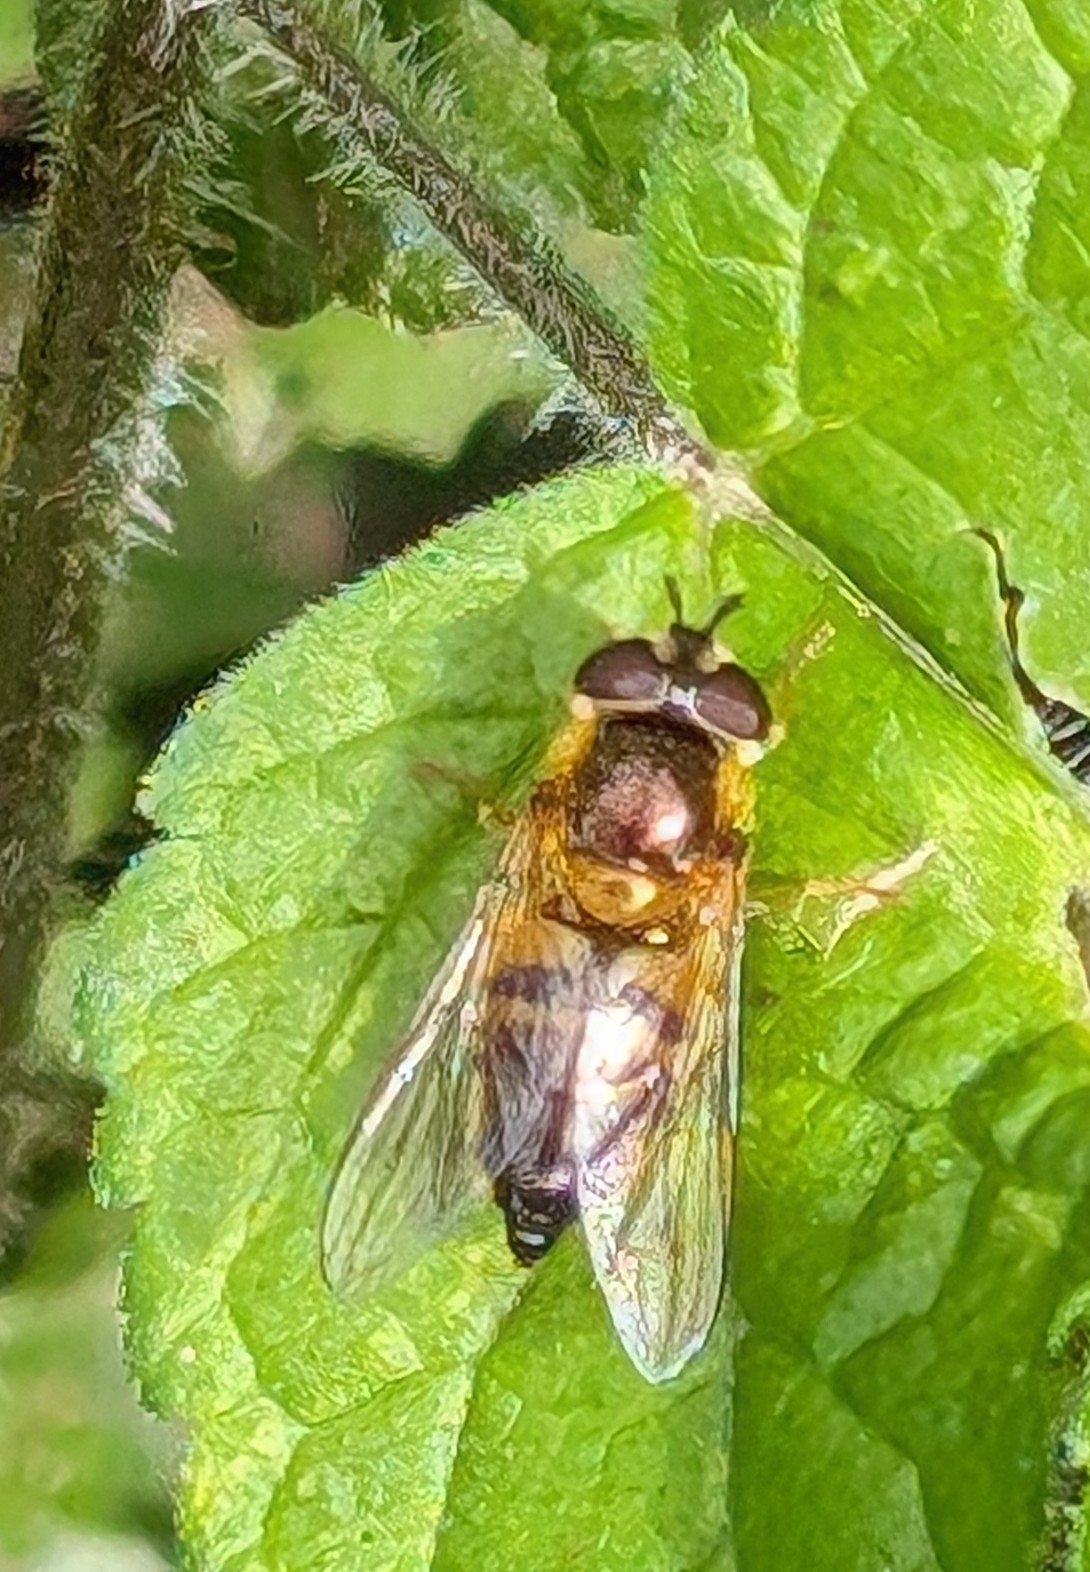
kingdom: Animalia
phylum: Arthropoda
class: Insecta
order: Diptera
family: Syrphidae
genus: Epistrophe
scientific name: Epistrophe eligans
